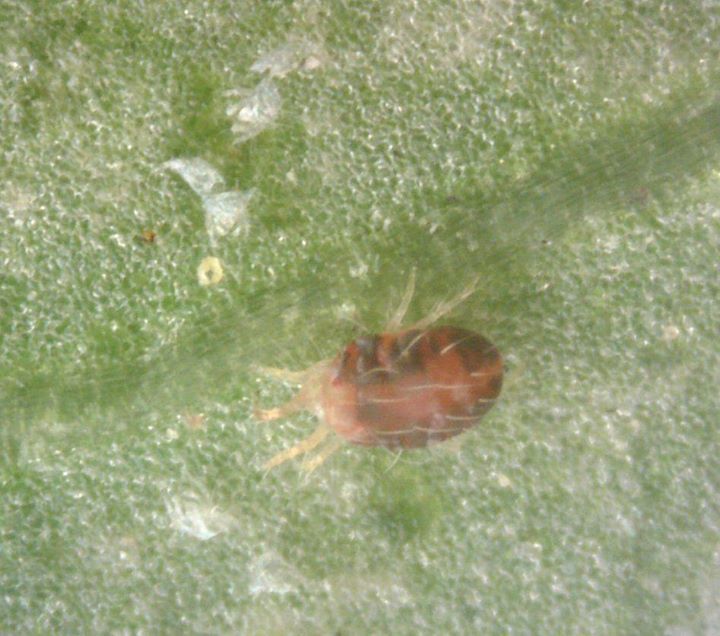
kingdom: Animalia
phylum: Arthropoda
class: Arachnida
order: Trombidiformes
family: Tetranychidae
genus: Tetranychus
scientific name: Tetranychus urticae
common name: Carmine spider mite
